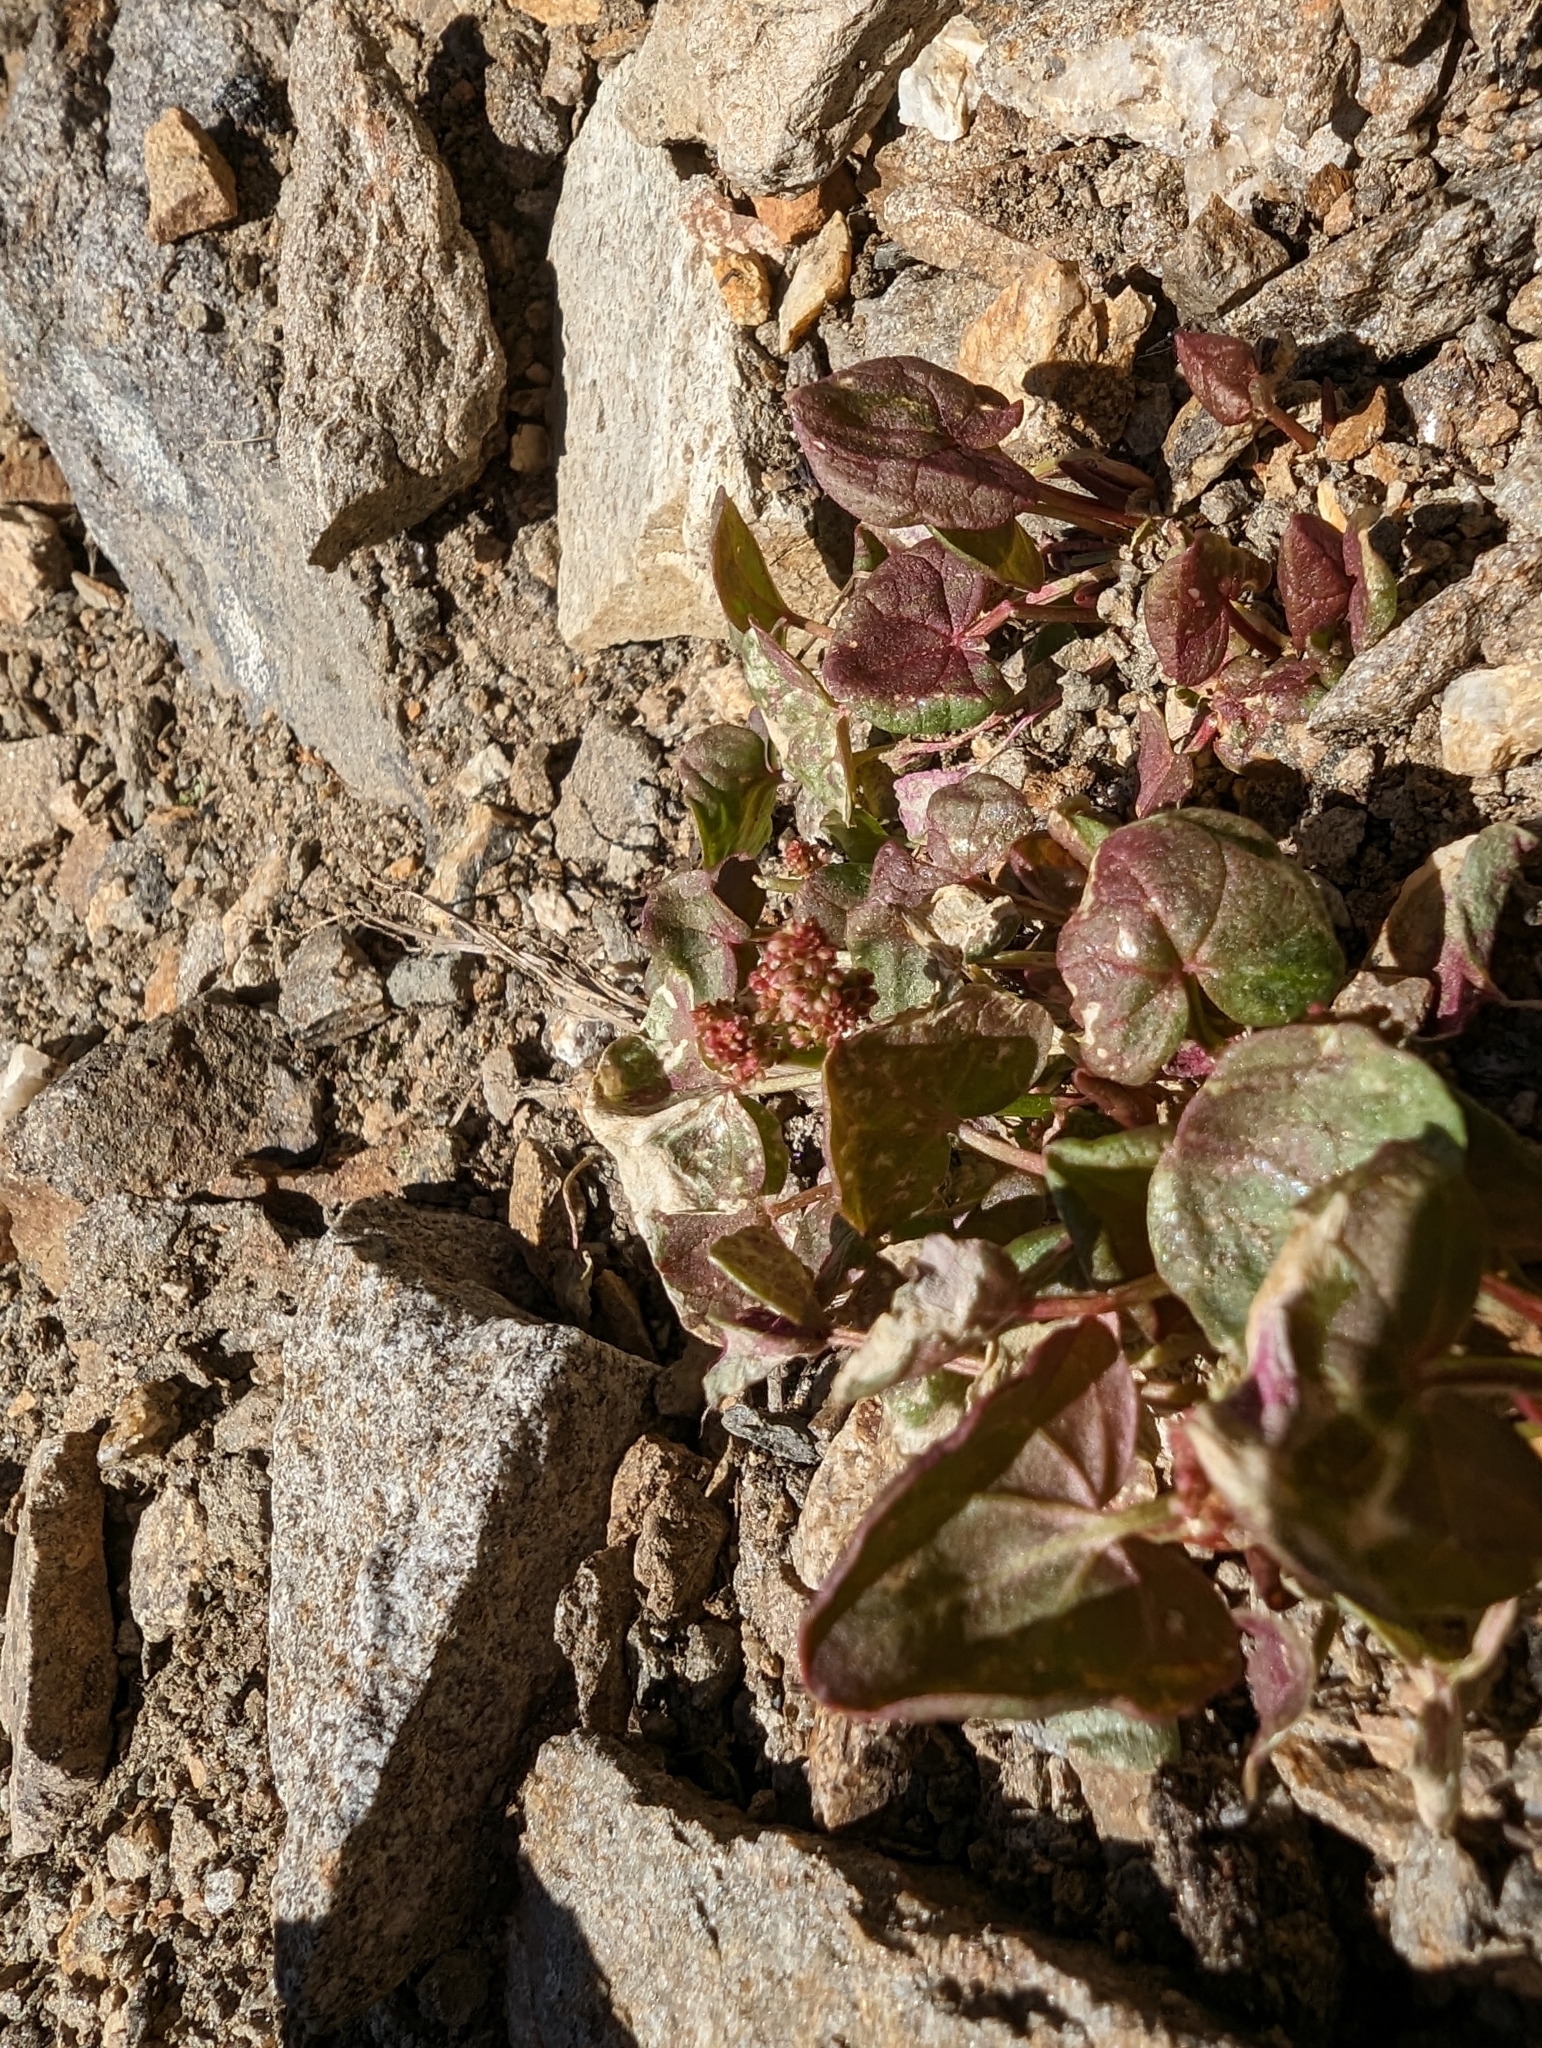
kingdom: Plantae
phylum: Tracheophyta
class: Magnoliopsida
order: Caryophyllales
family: Polygonaceae
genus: Oxyria
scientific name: Oxyria digyna
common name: Alpine mountain-sorrel
